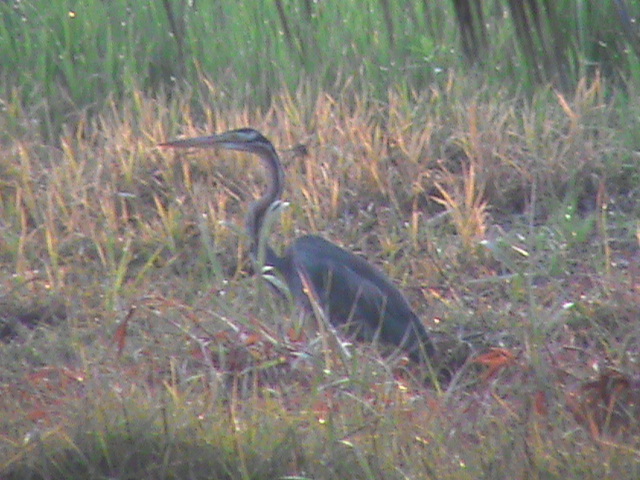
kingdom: Animalia
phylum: Chordata
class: Aves
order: Pelecaniformes
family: Ardeidae
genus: Ardea
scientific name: Ardea purpurea
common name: Purple heron
